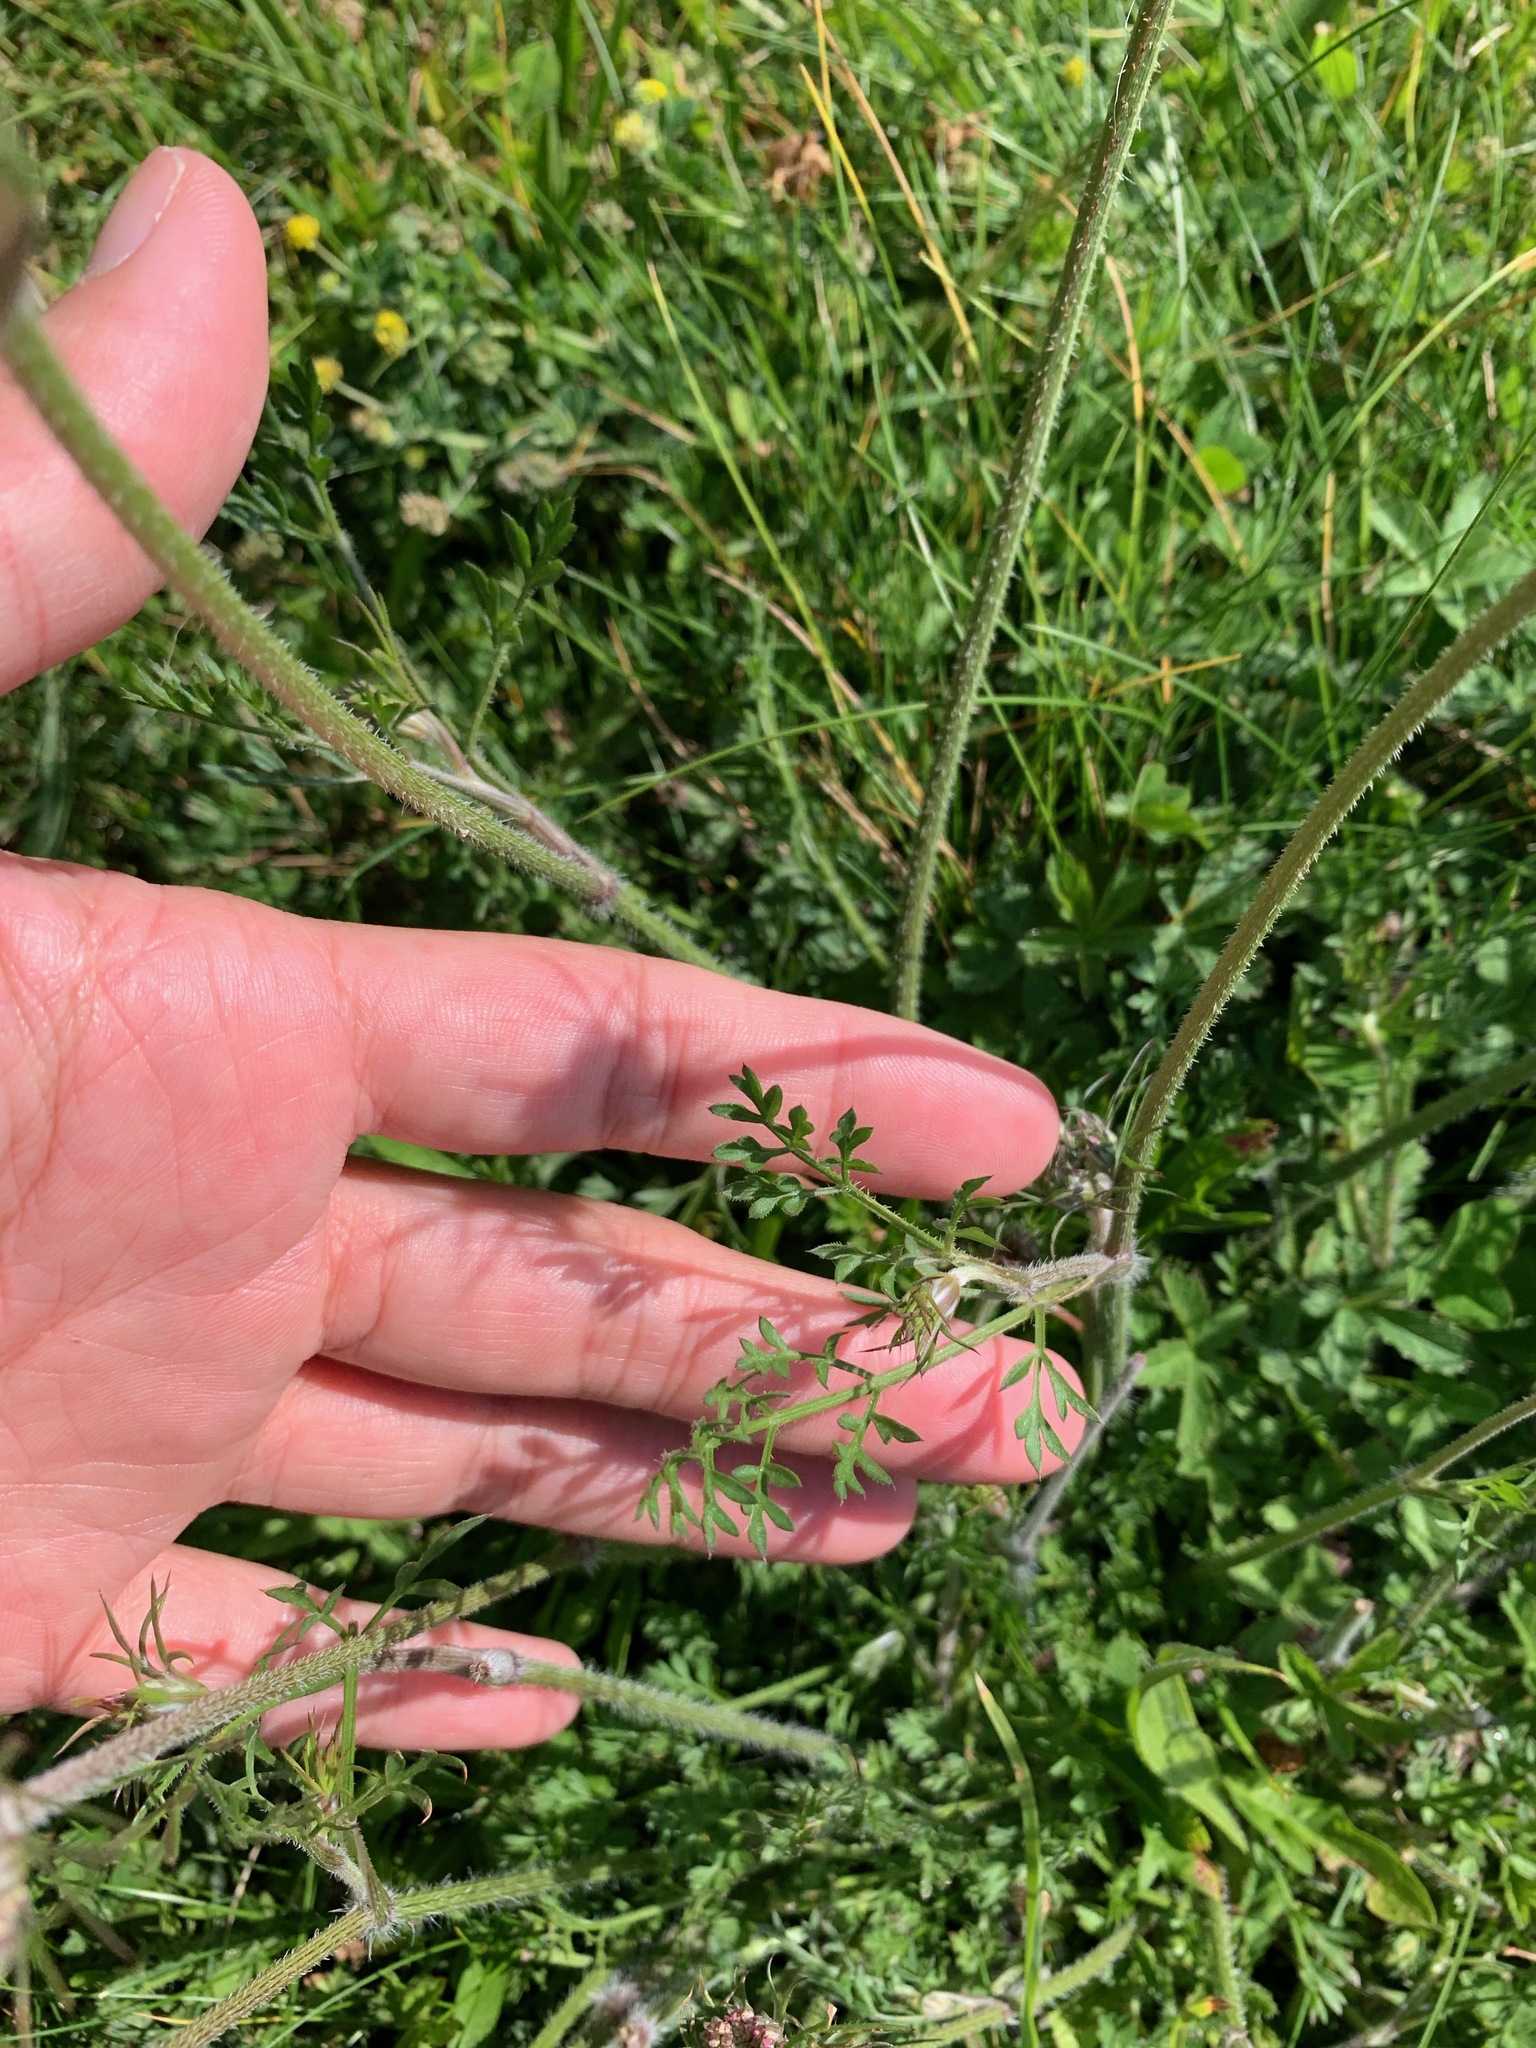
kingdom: Plantae
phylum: Tracheophyta
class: Magnoliopsida
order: Apiales
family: Apiaceae
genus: Daucus
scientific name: Daucus carota
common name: Wild carrot
